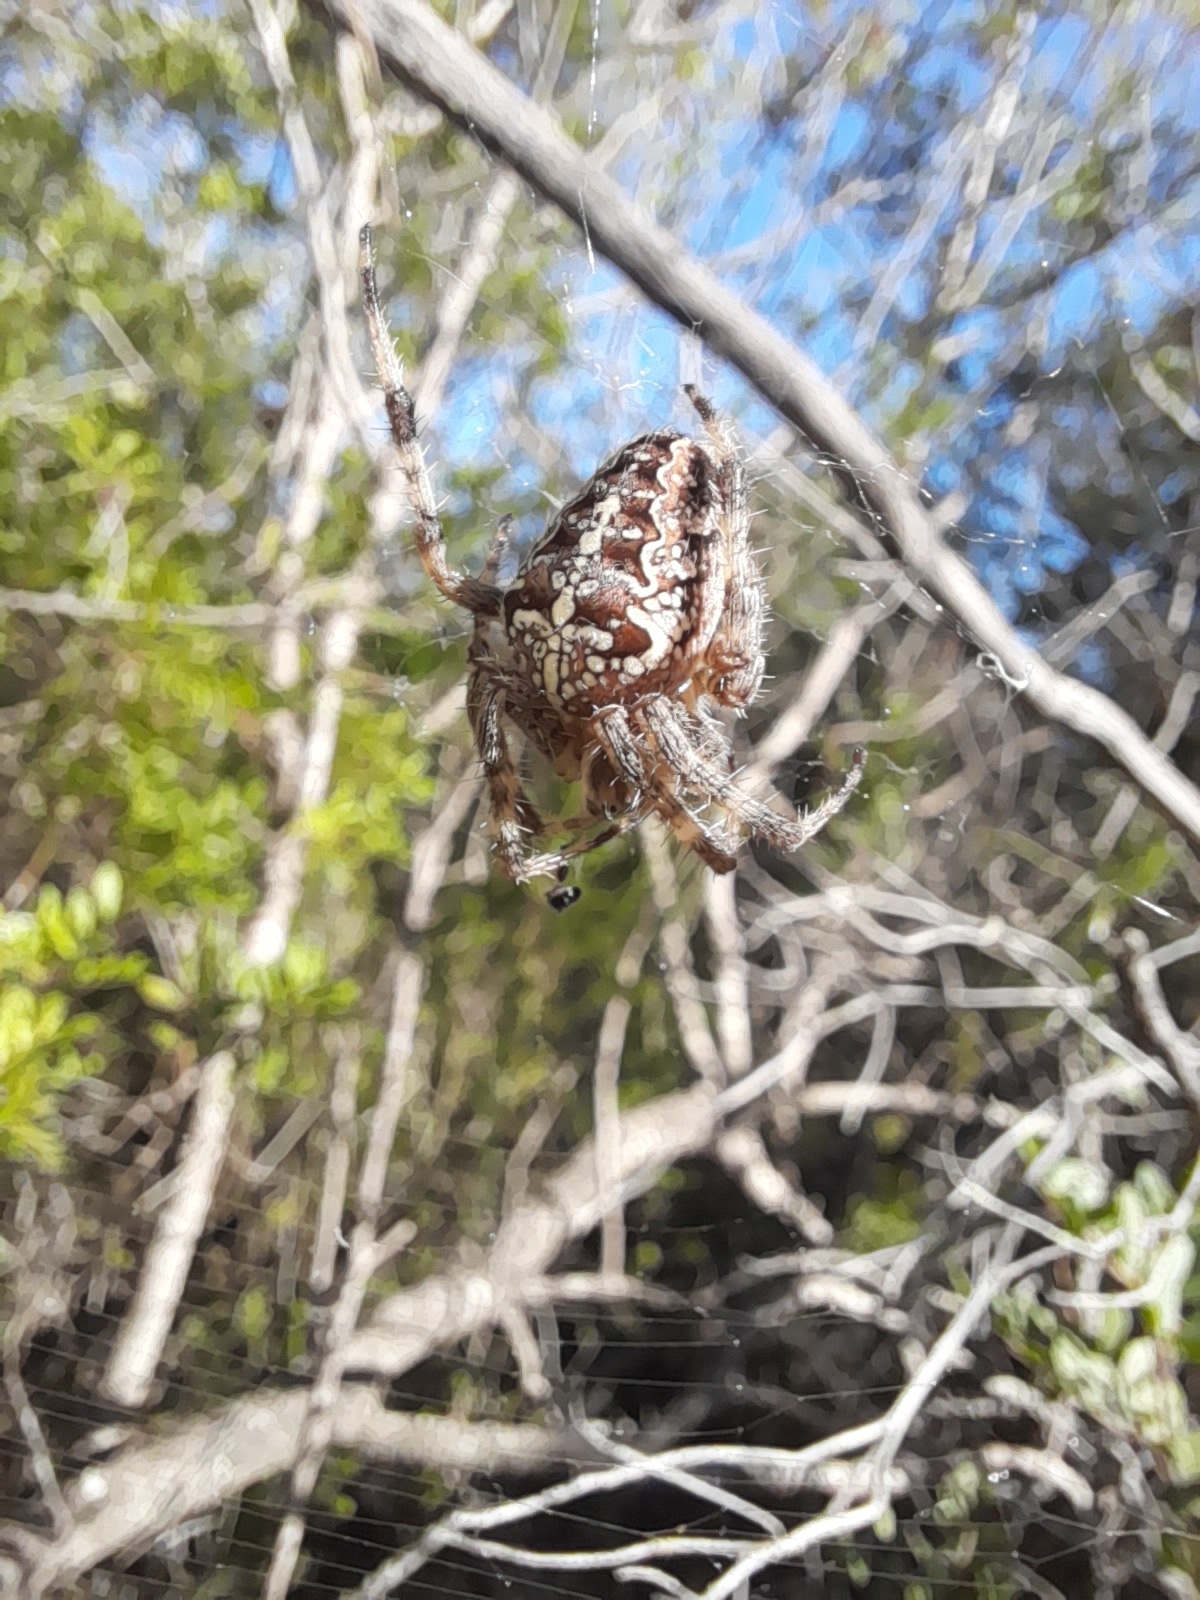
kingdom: Animalia
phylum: Arthropoda
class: Arachnida
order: Araneae
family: Araneidae
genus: Araneus
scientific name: Araneus diadematus
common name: Cross orbweaver
